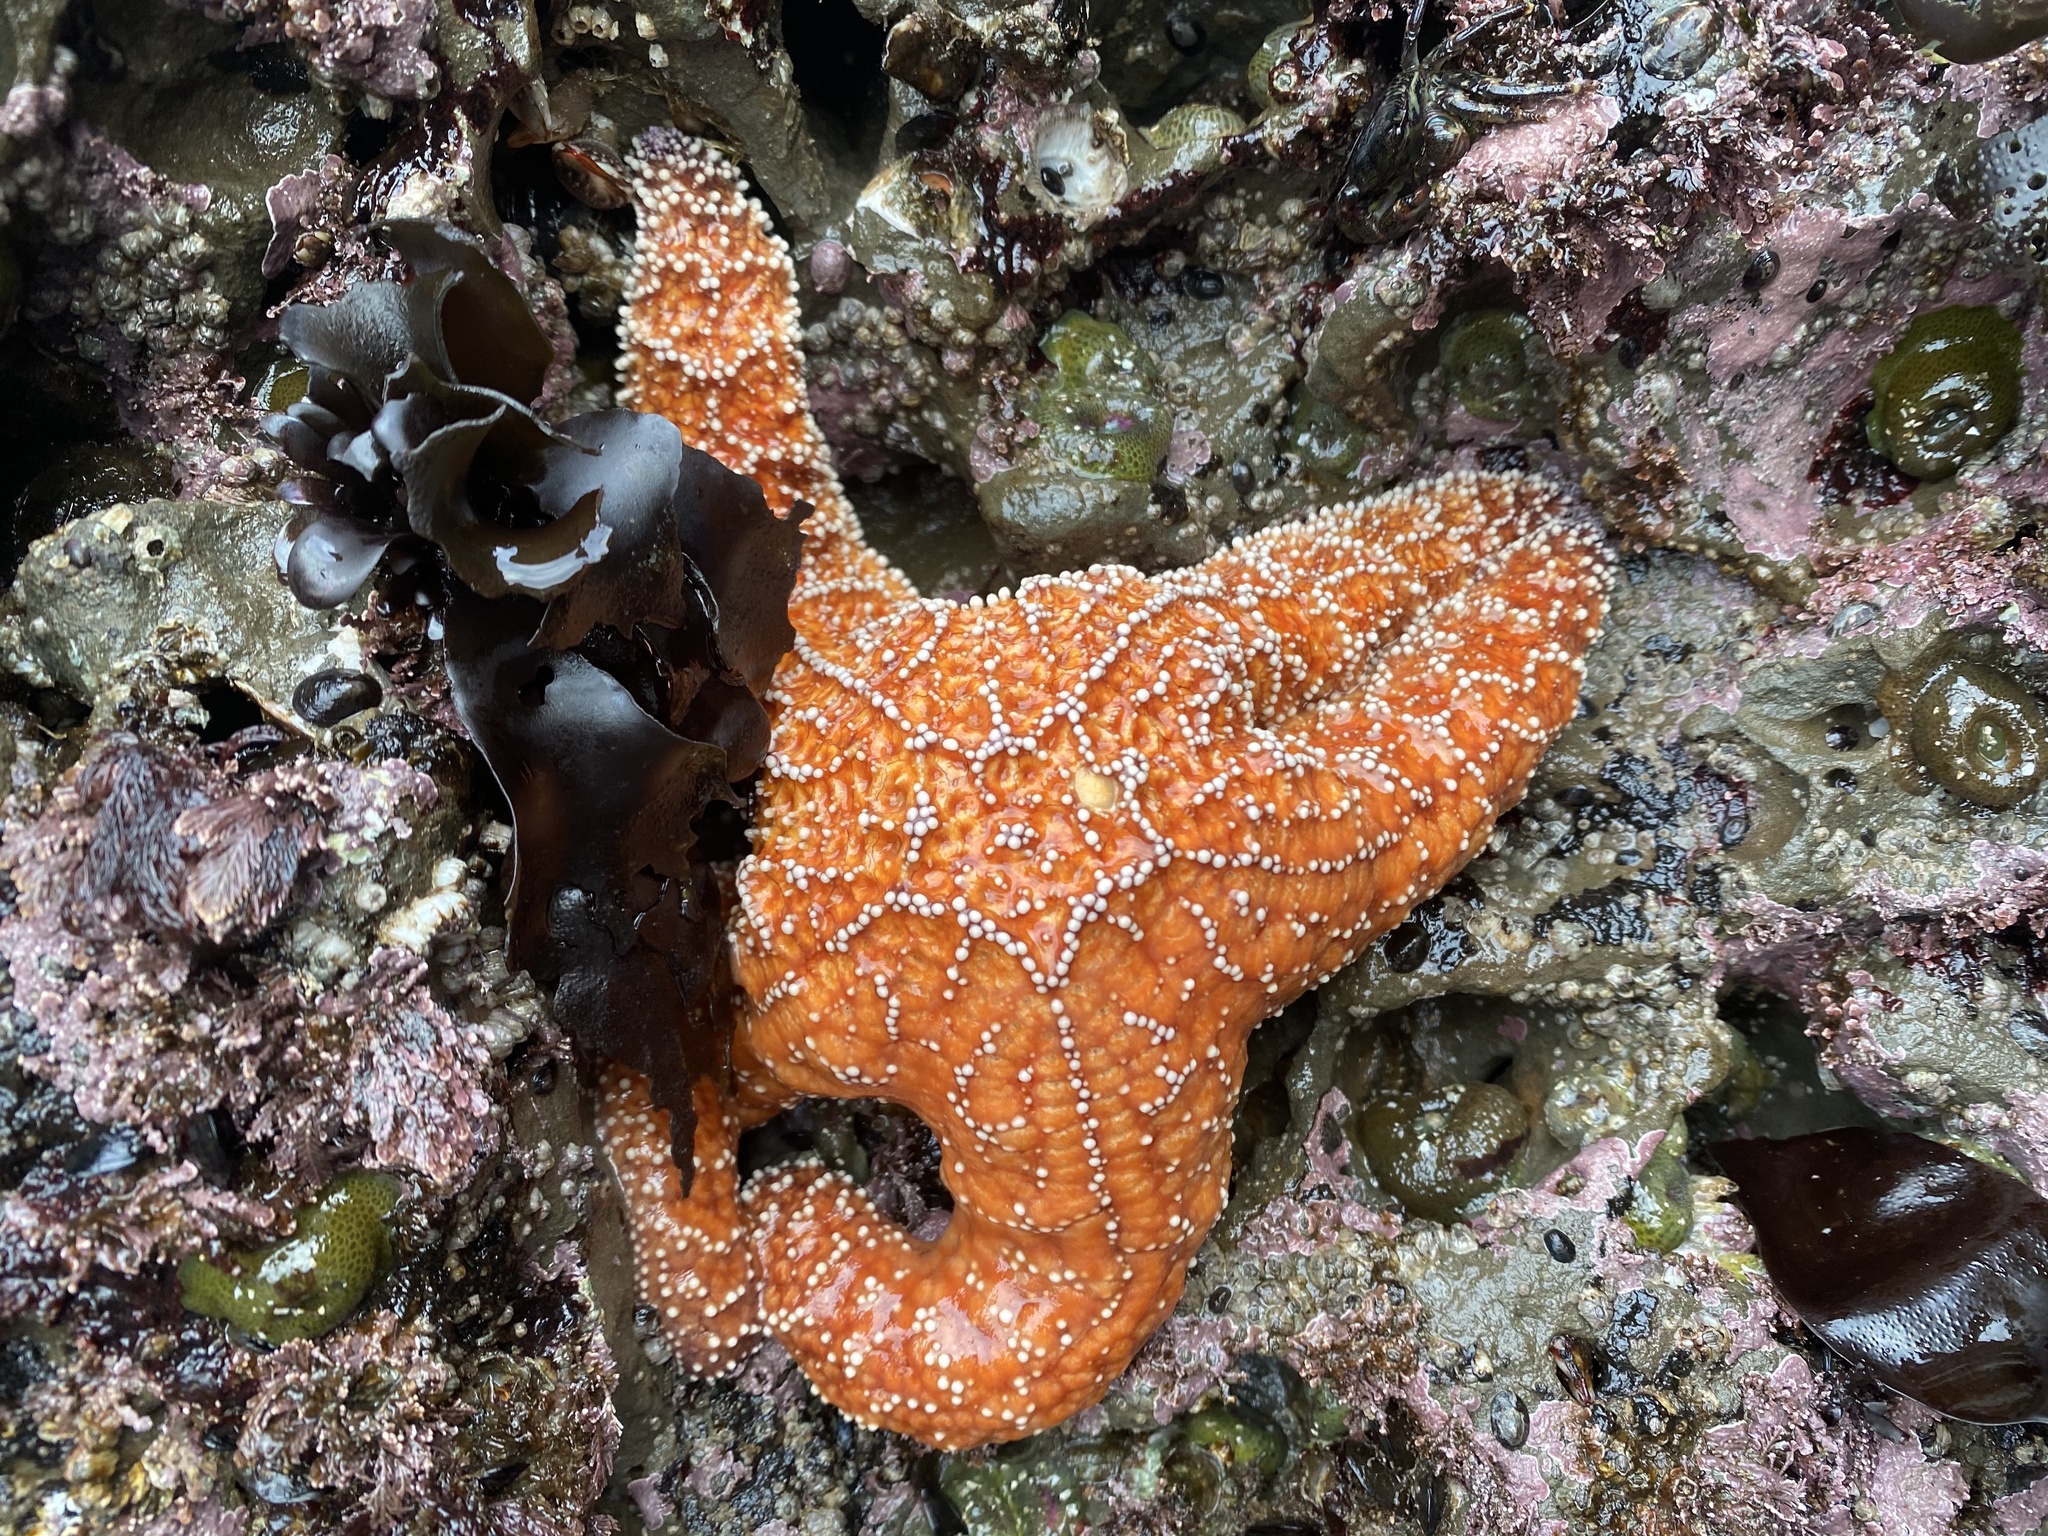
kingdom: Animalia
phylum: Echinodermata
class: Asteroidea
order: Forcipulatida
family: Asteriidae
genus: Pisaster
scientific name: Pisaster ochraceus
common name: Ochre stars
